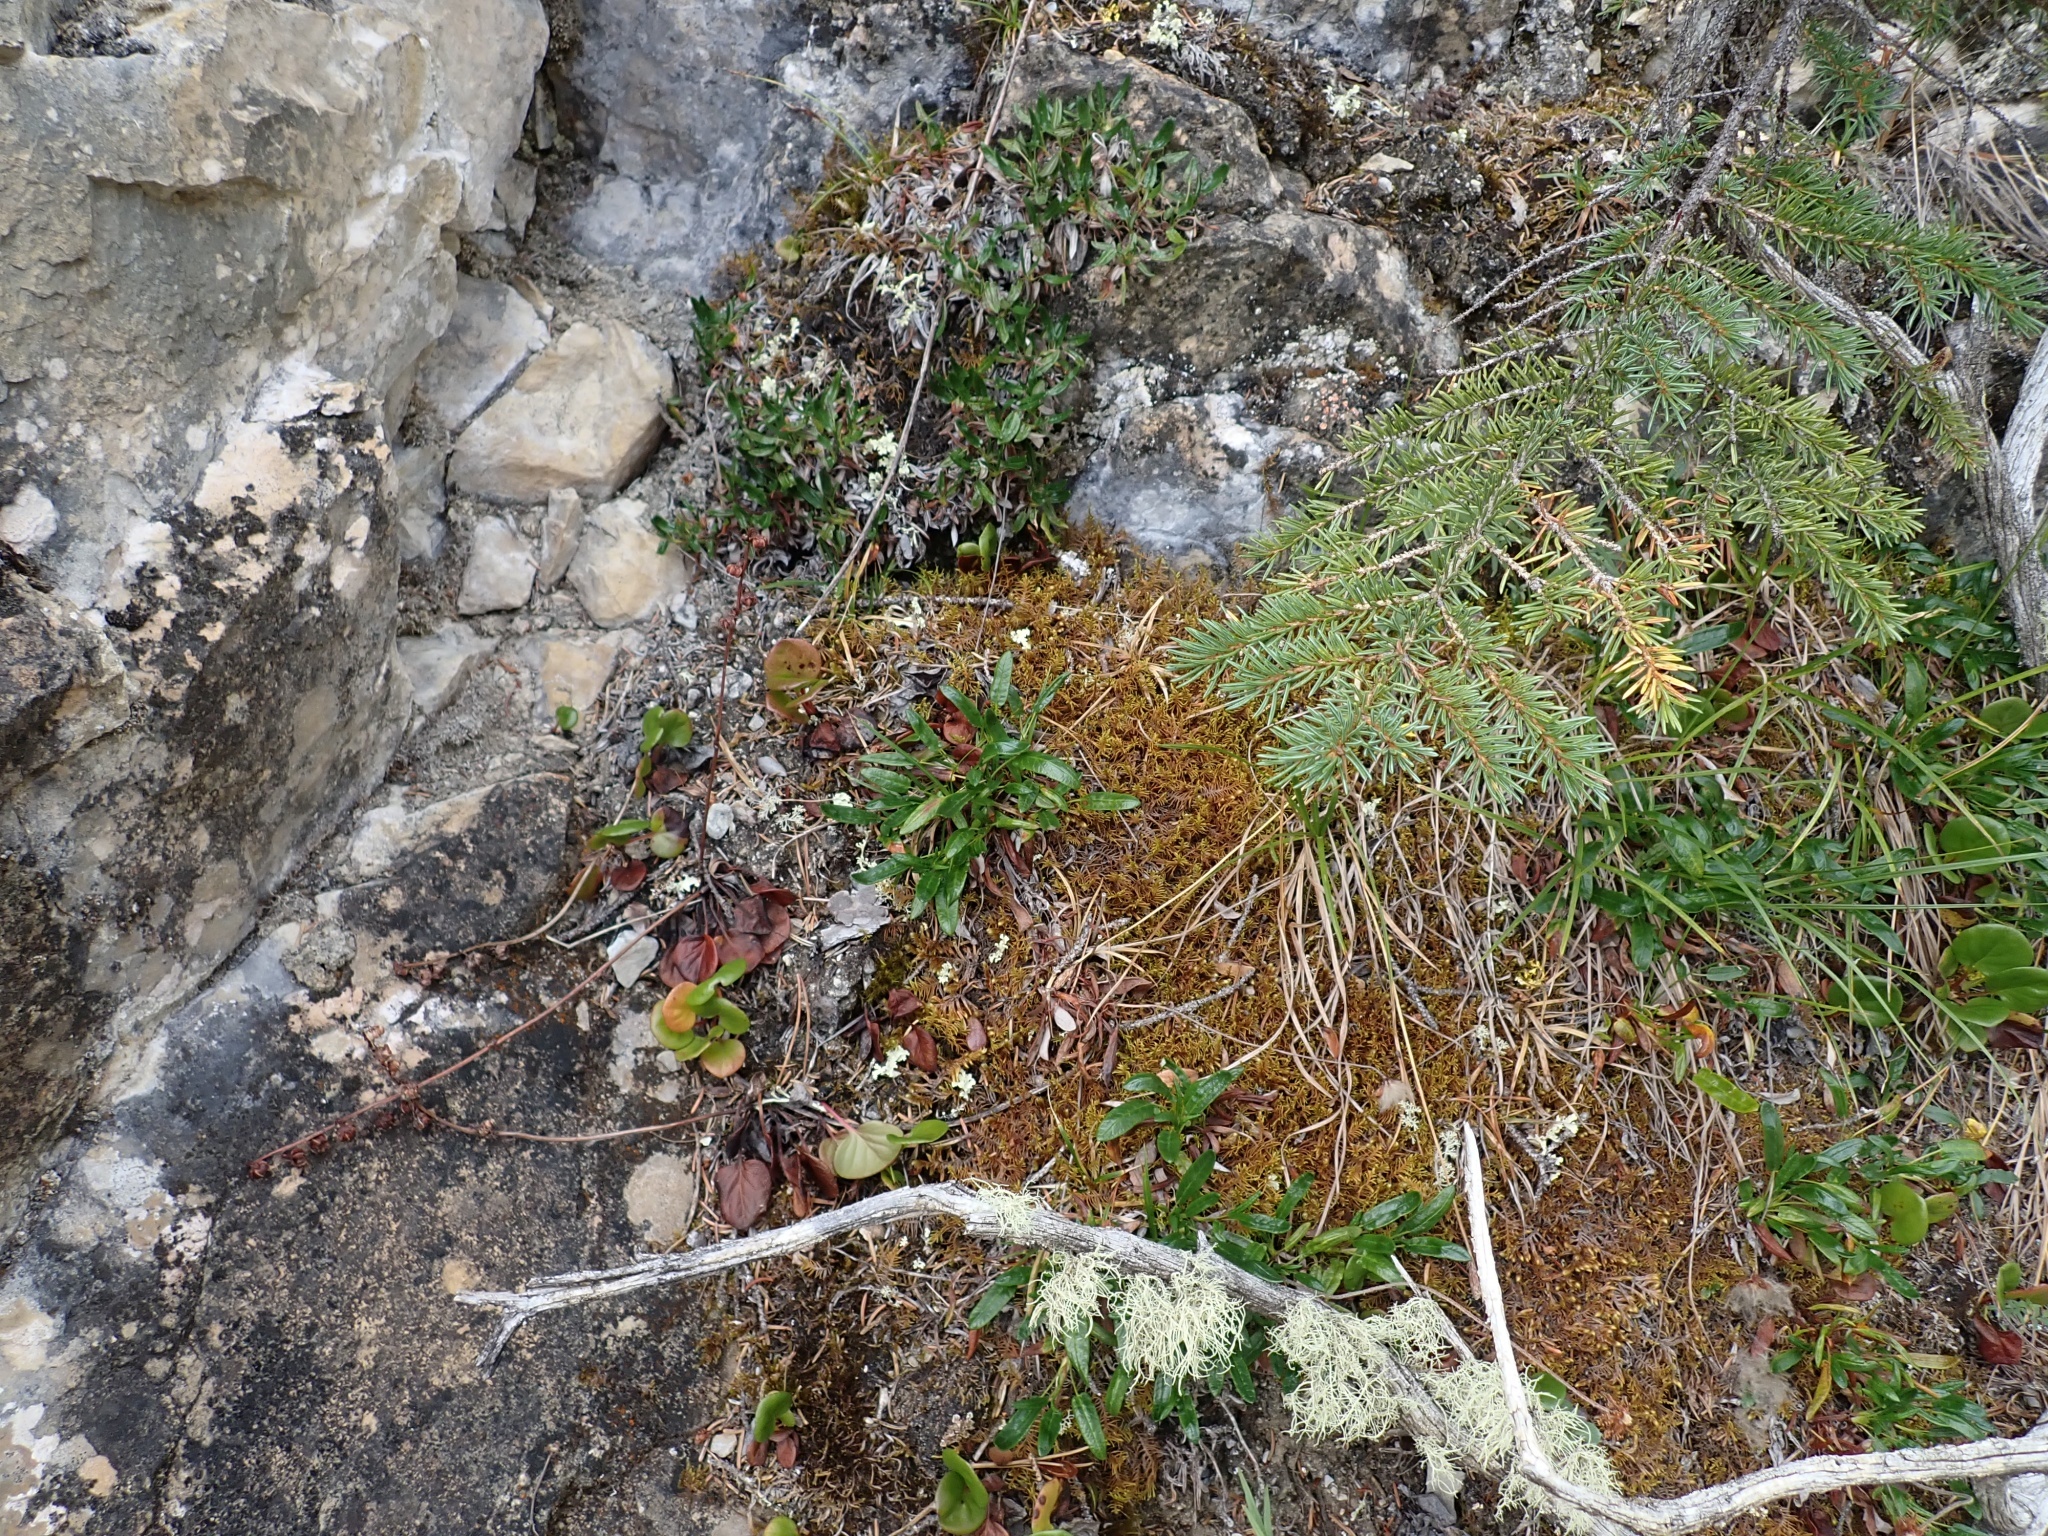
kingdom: Plantae
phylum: Tracheophyta
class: Magnoliopsida
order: Rosales
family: Rosaceae
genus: Dryas
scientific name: Dryas integrifolia
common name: Entire-leaved mountain avens
